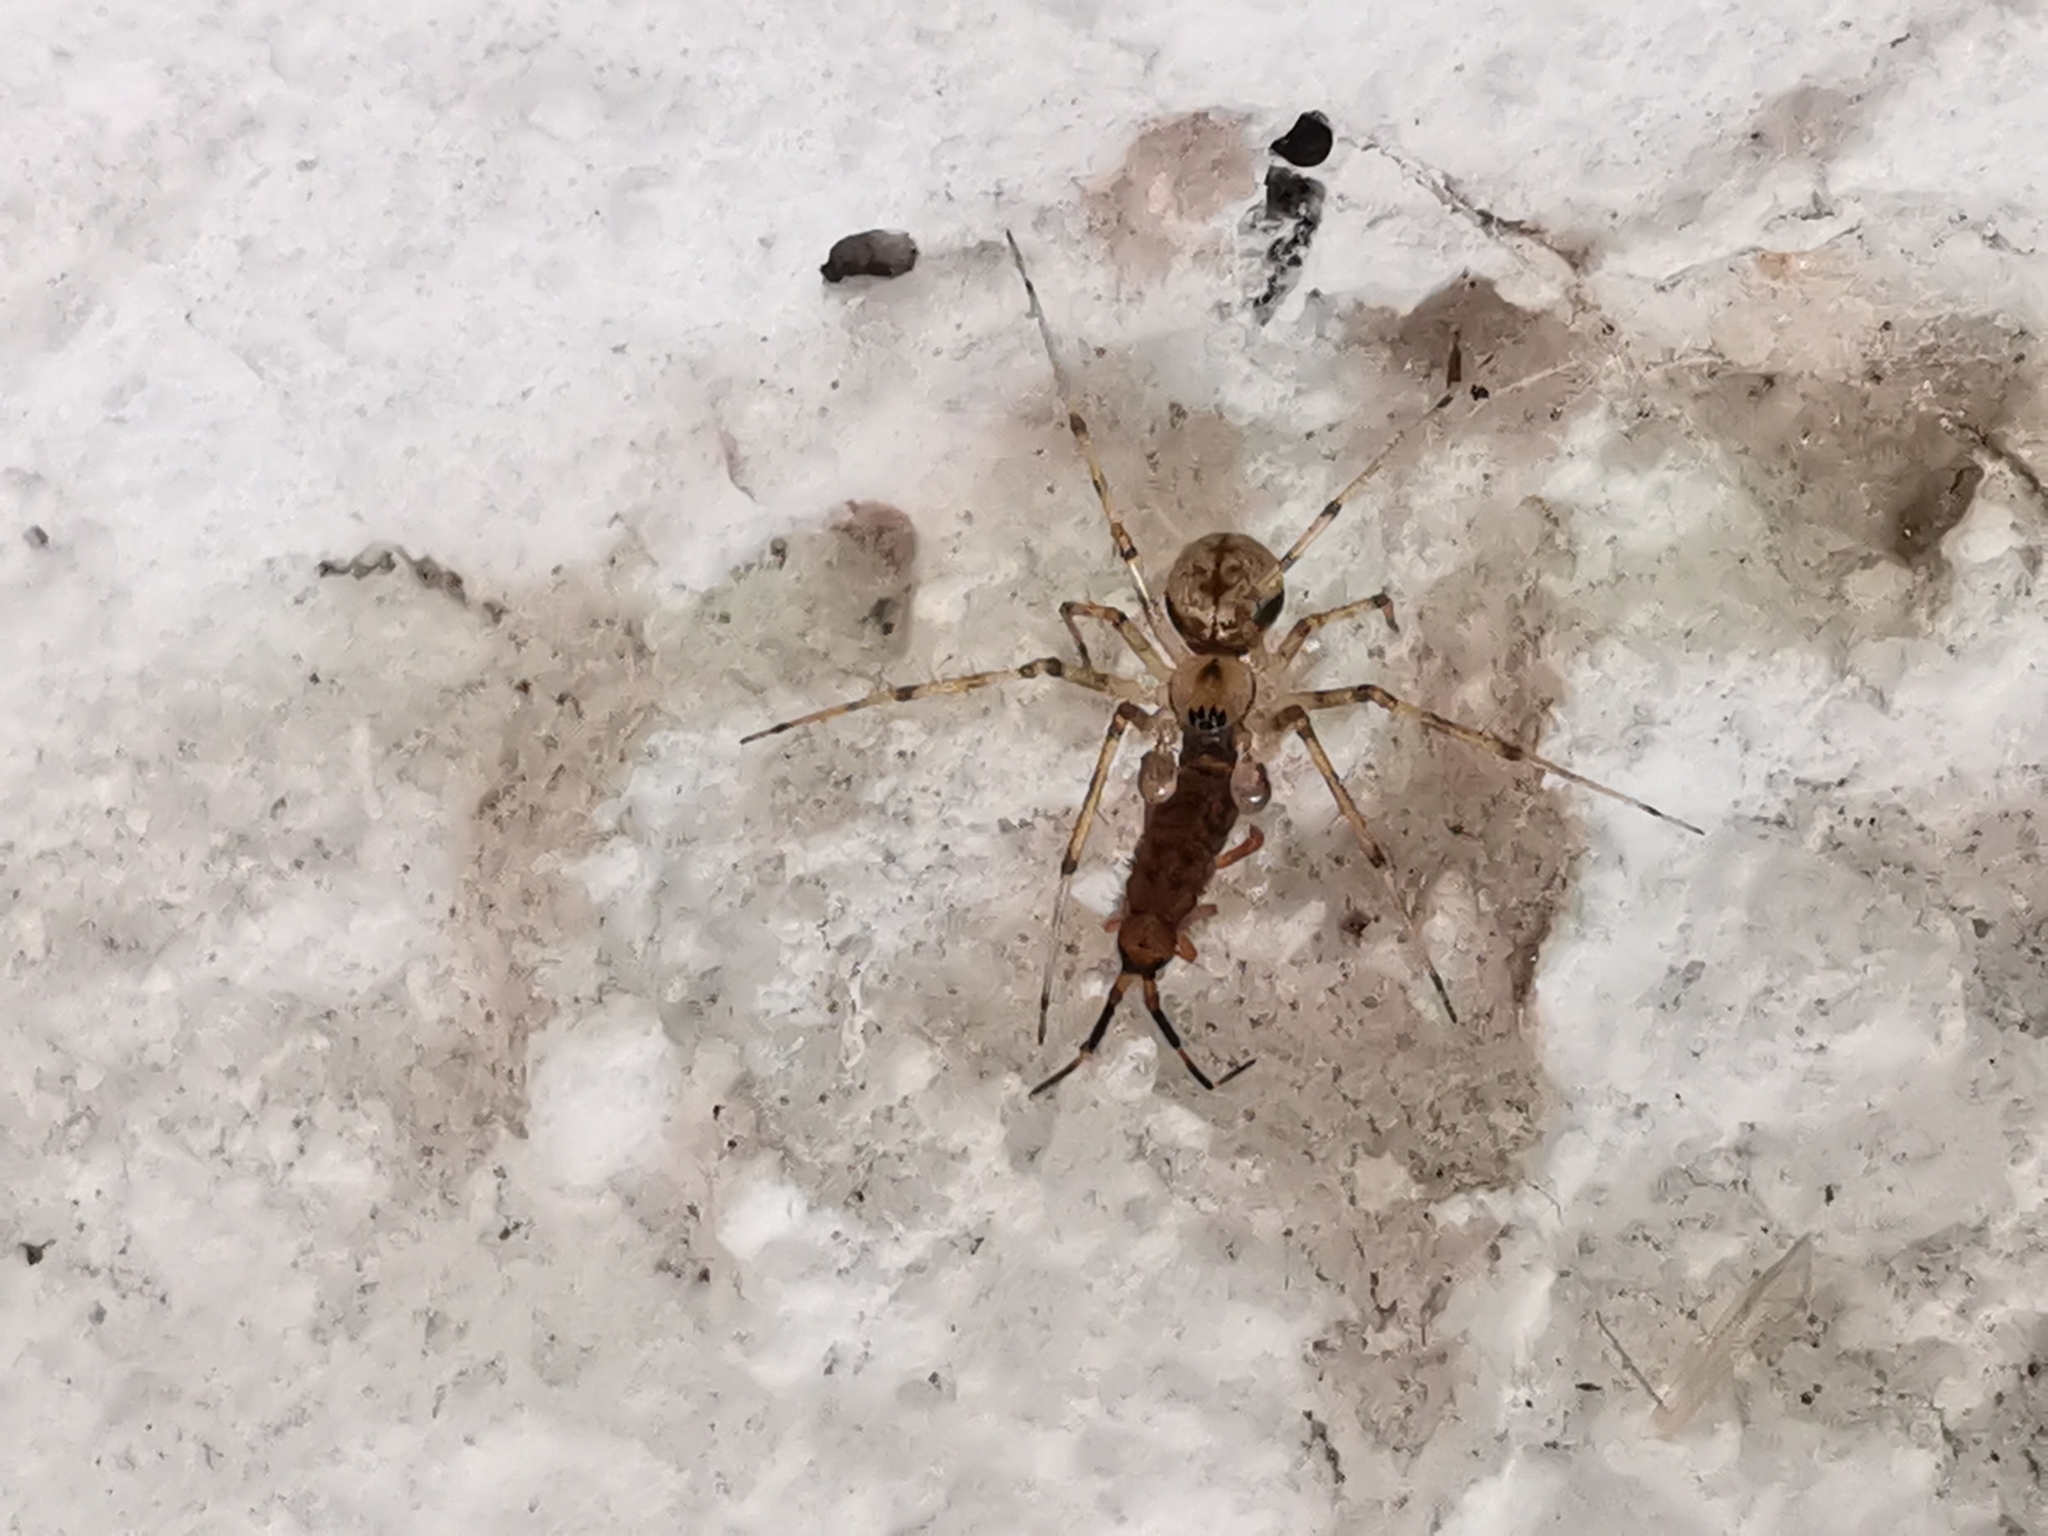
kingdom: Animalia
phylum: Arthropoda
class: Arachnida
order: Araneae
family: Linyphiidae
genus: Drapetisca
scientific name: Drapetisca socialis
